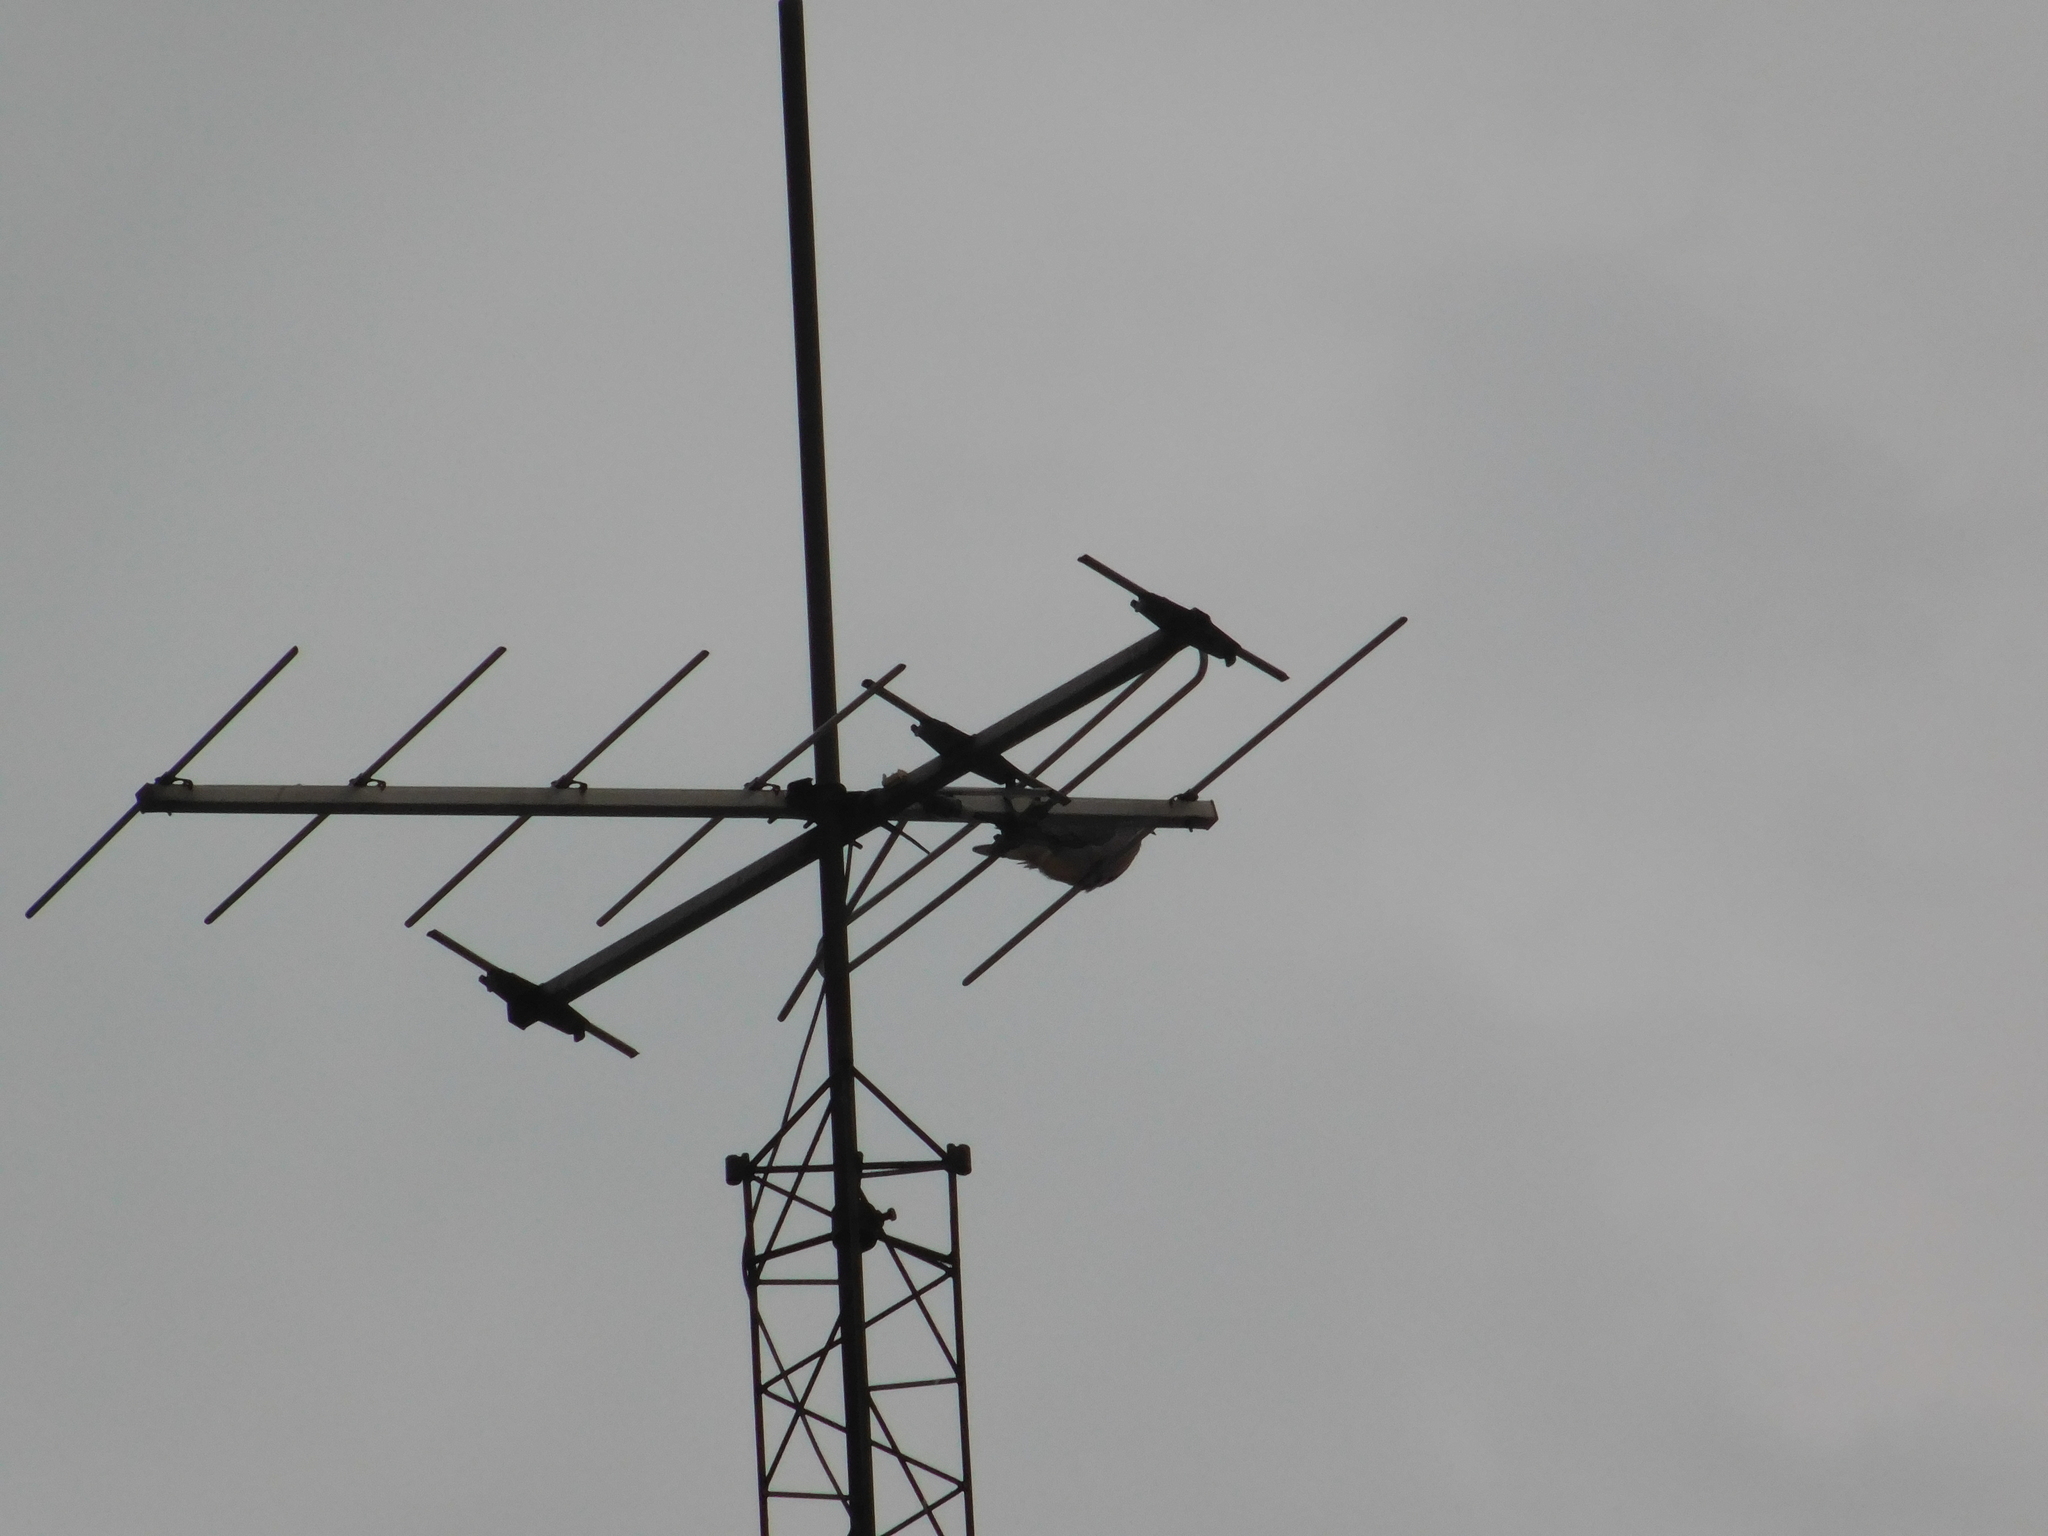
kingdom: Animalia
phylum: Chordata
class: Aves
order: Columbiformes
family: Columbidae
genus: Zenaida
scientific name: Zenaida auriculata
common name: Eared dove
